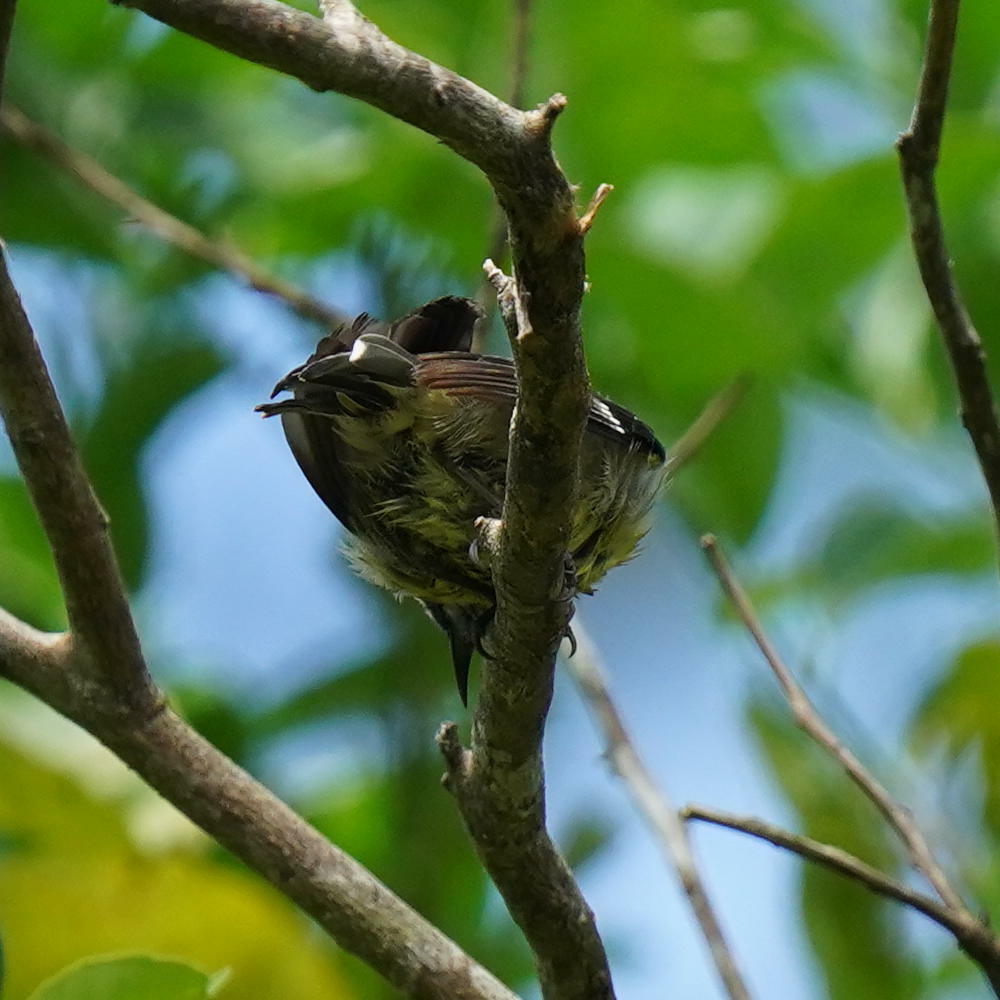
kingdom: Animalia
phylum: Chordata
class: Aves
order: Passeriformes
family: Thraupidae
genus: Coereba
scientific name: Coereba flaveola
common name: Bananaquit
